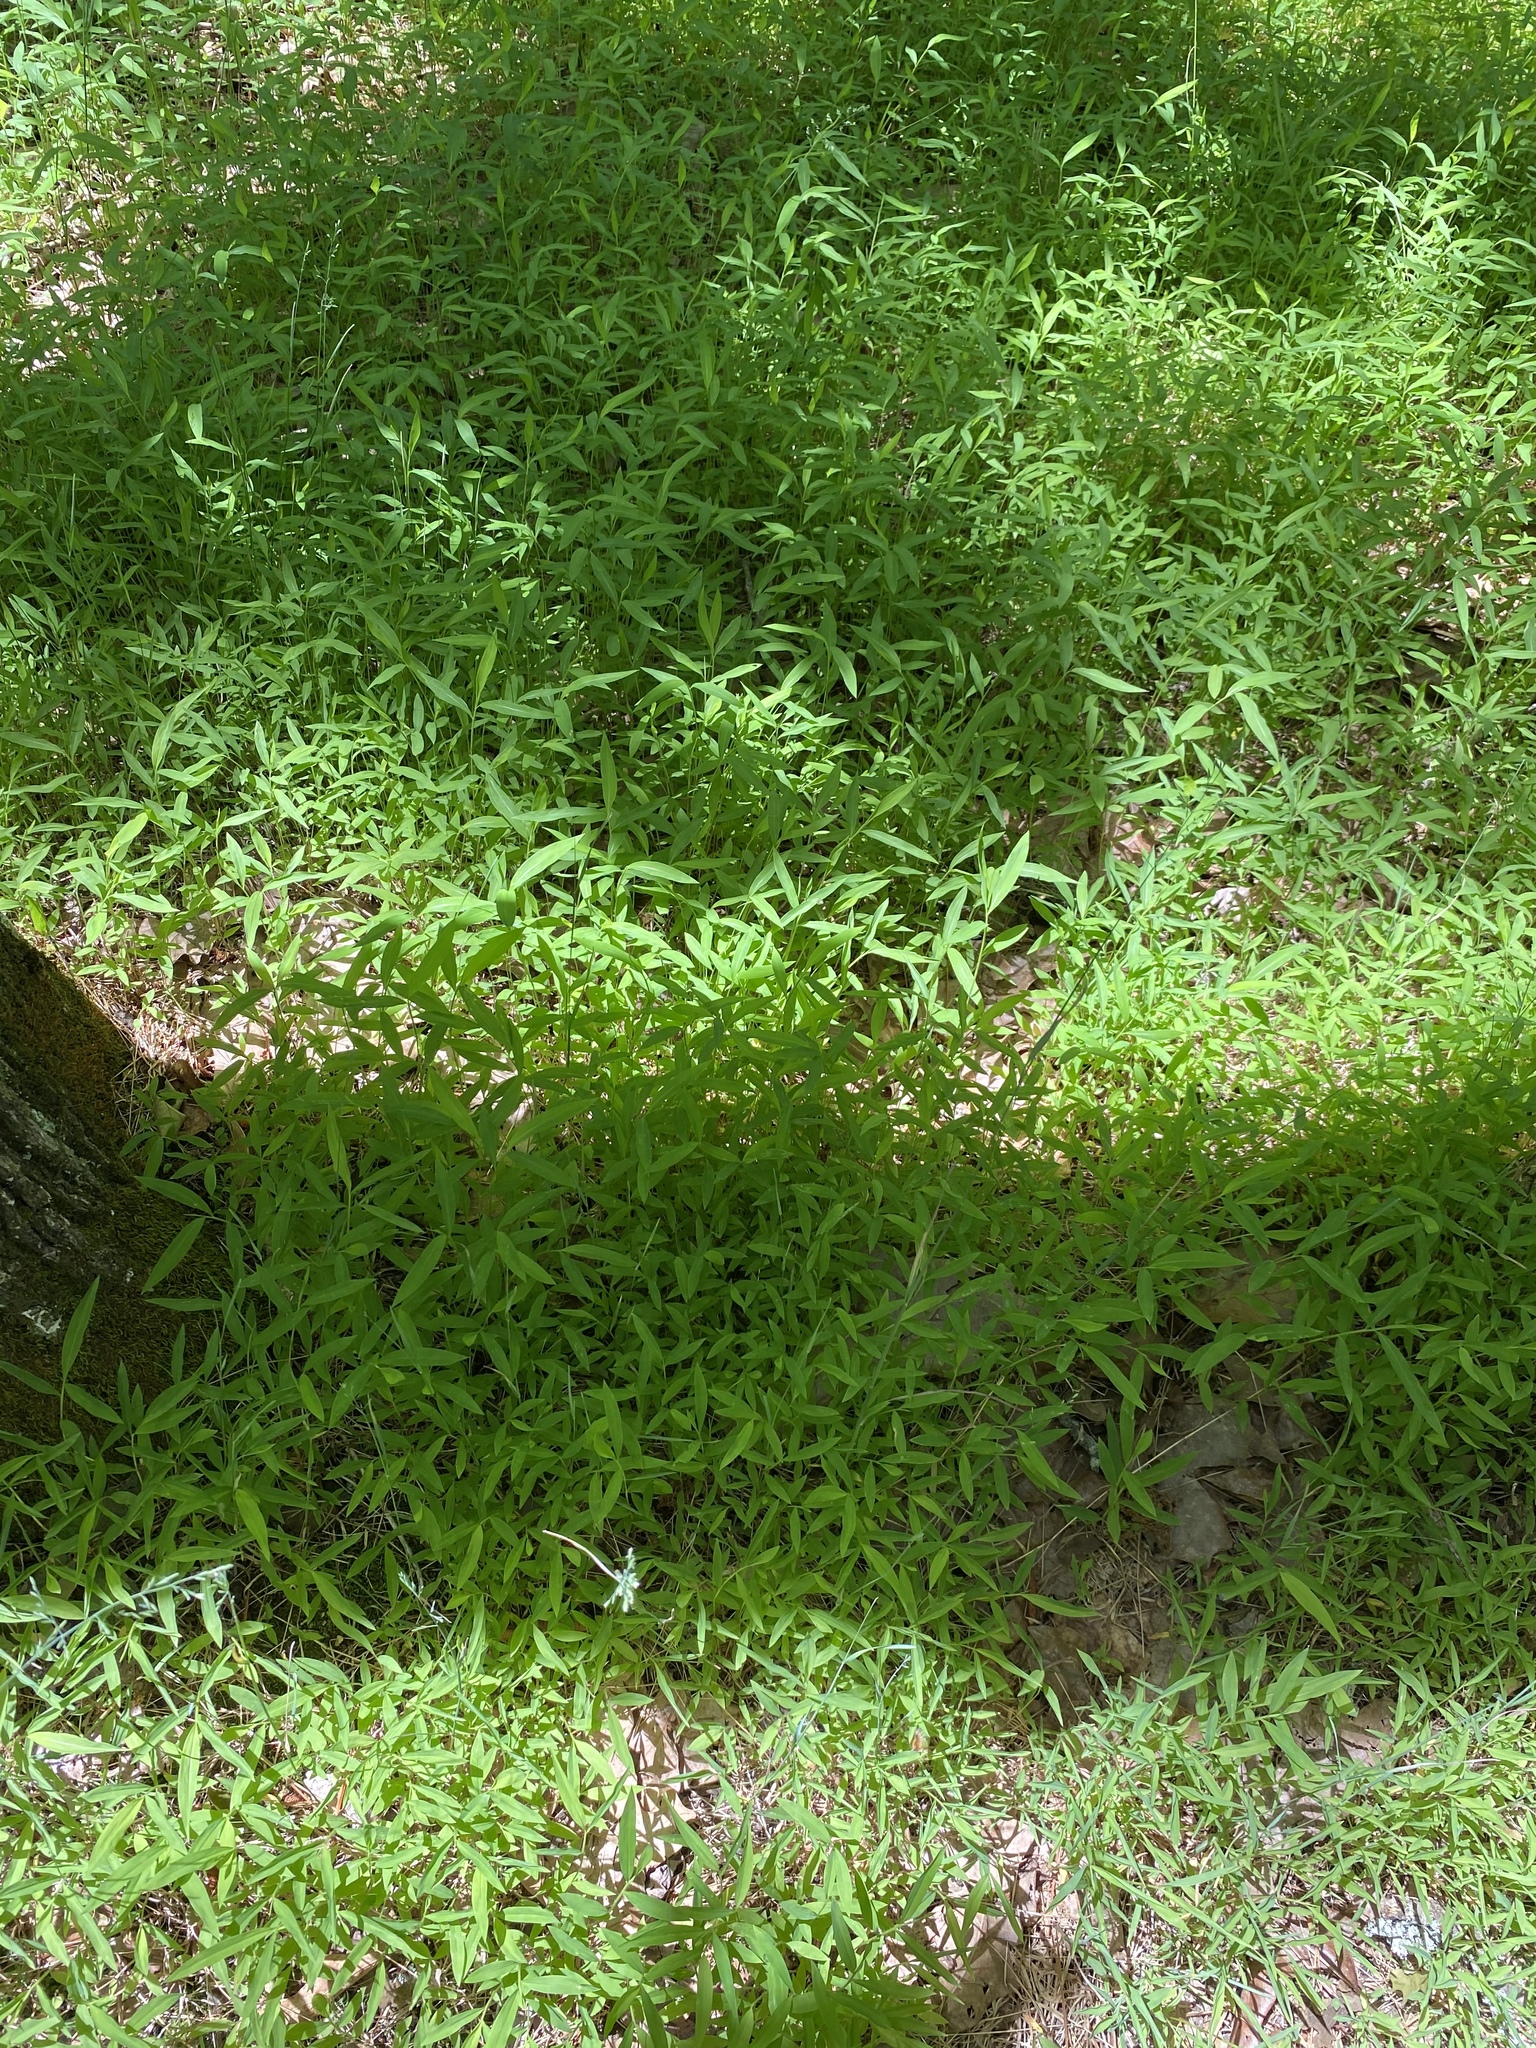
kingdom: Plantae
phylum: Tracheophyta
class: Liliopsida
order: Poales
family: Poaceae
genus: Microstegium
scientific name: Microstegium vimineum
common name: Japanese stiltgrass
